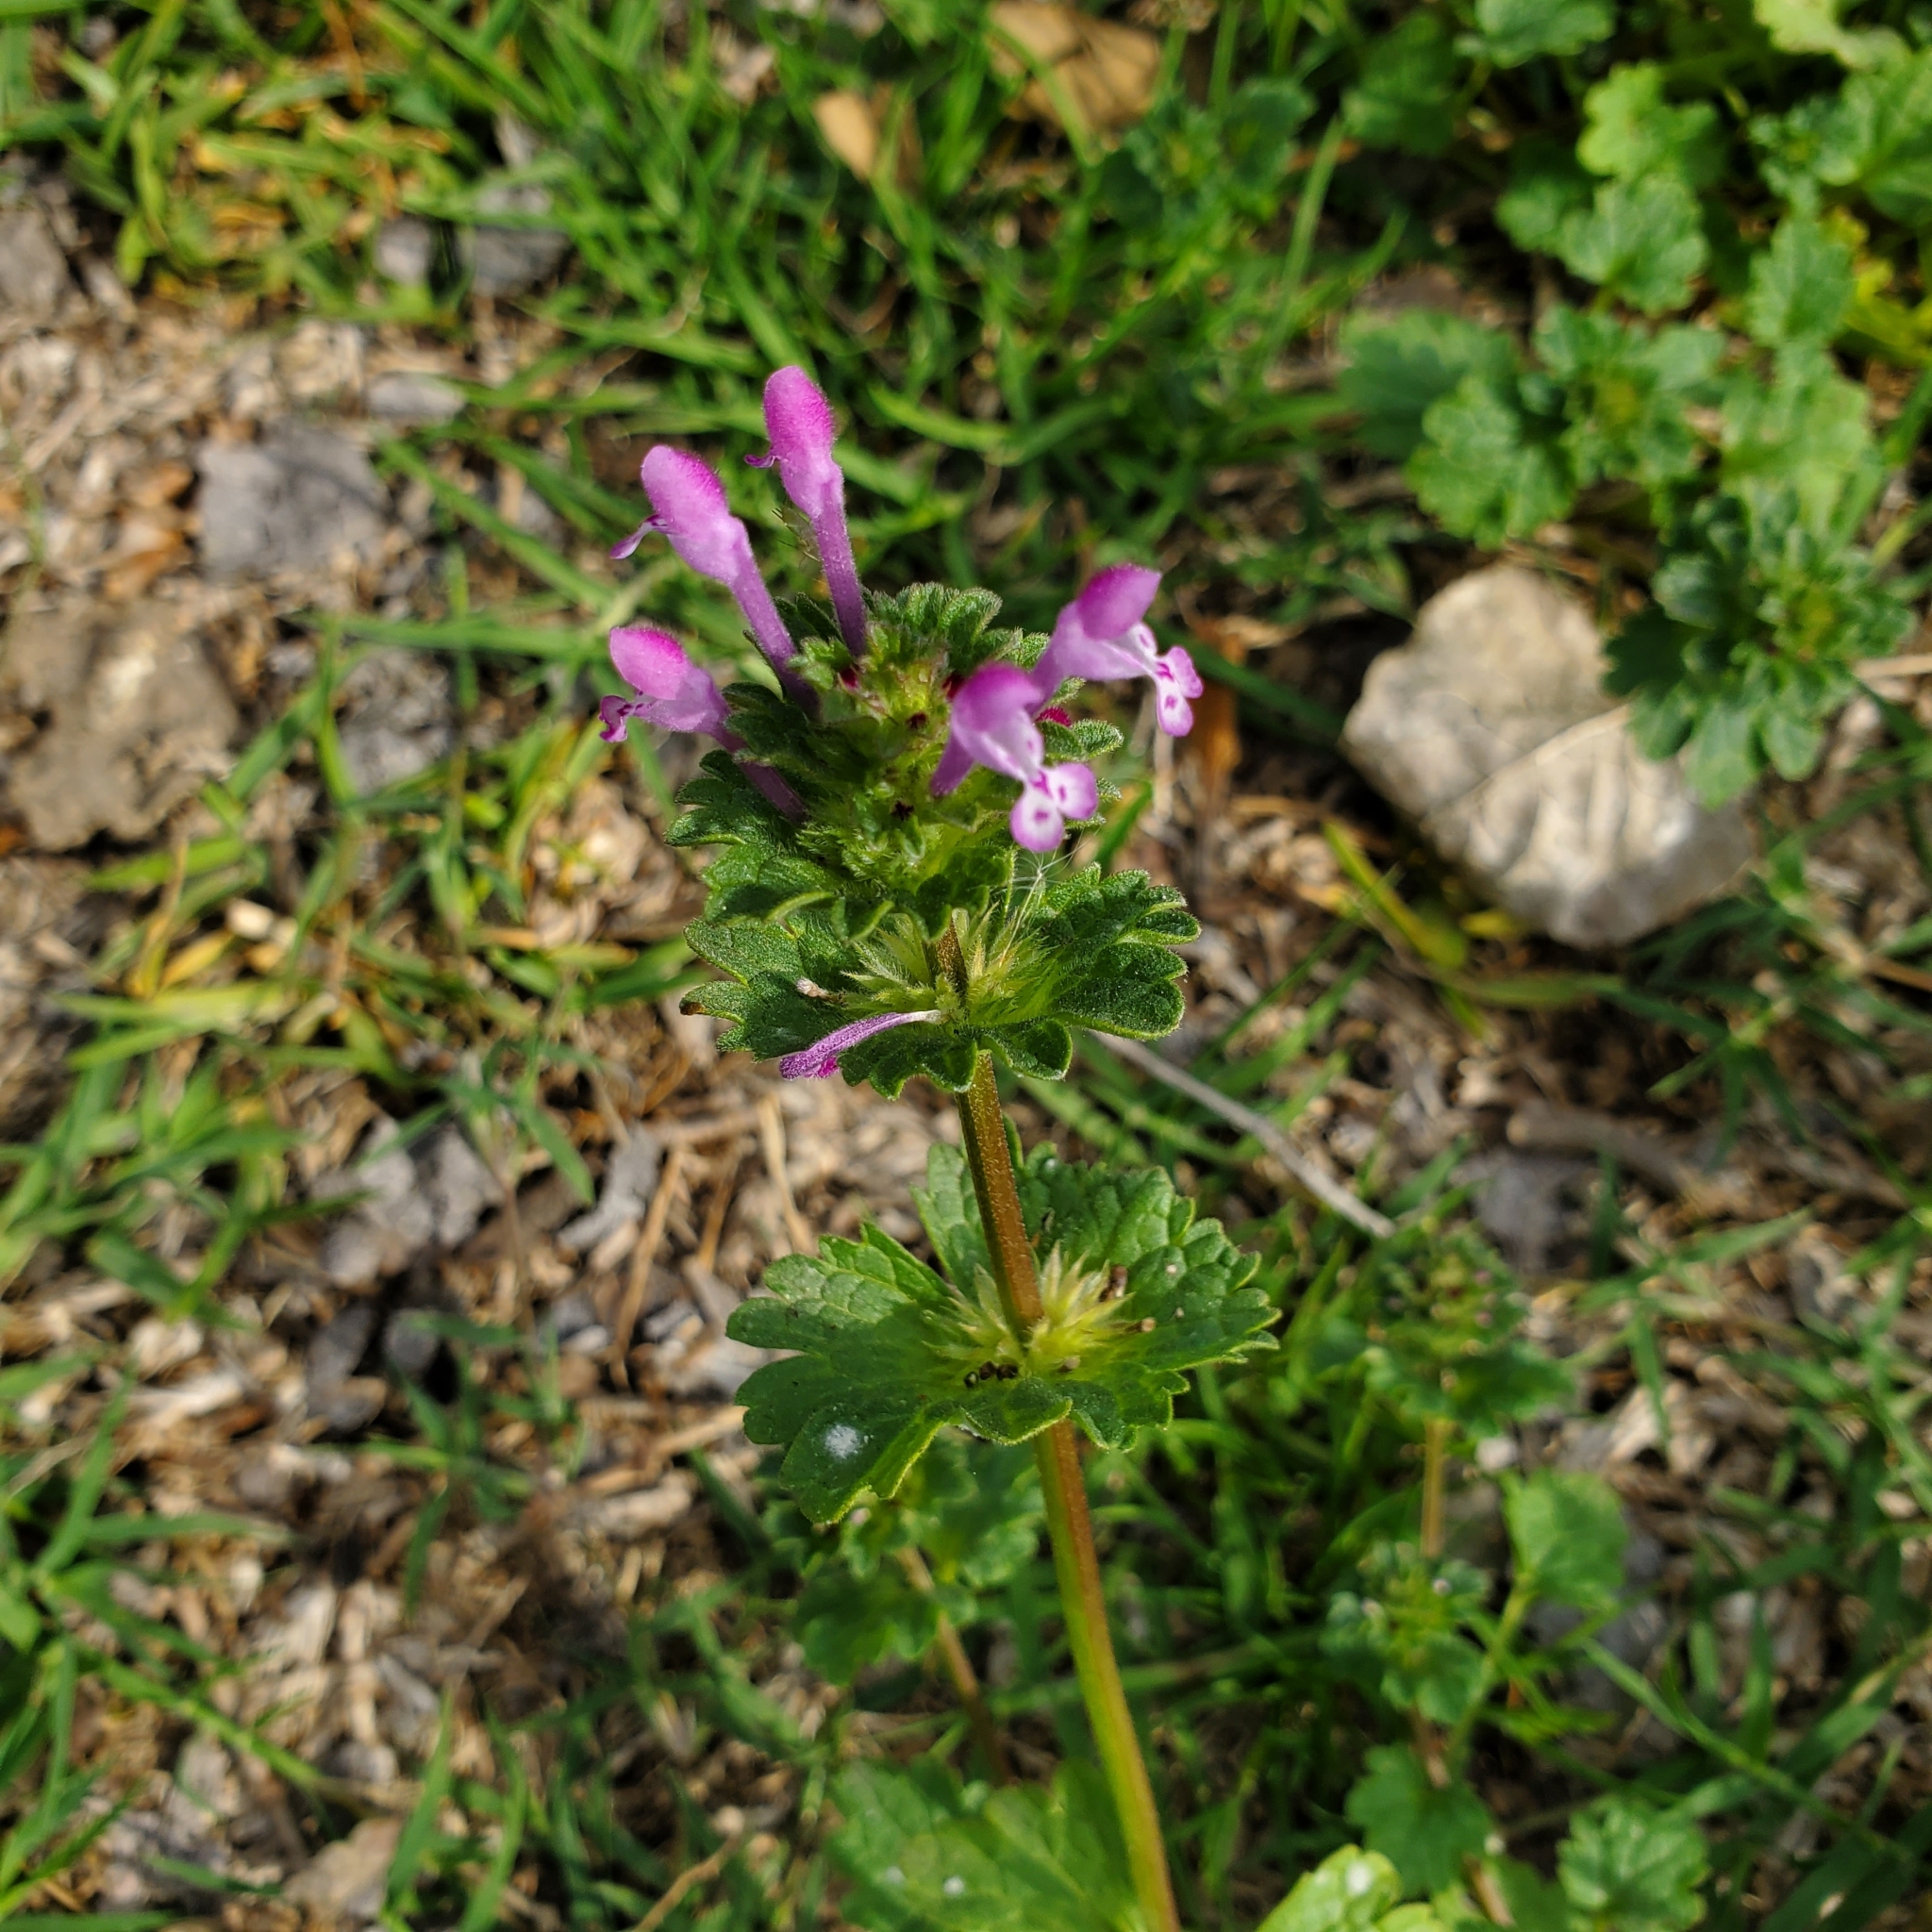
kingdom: Plantae
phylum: Tracheophyta
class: Magnoliopsida
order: Lamiales
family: Lamiaceae
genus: Lamium
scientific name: Lamium amplexicaule
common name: Henbit dead-nettle
